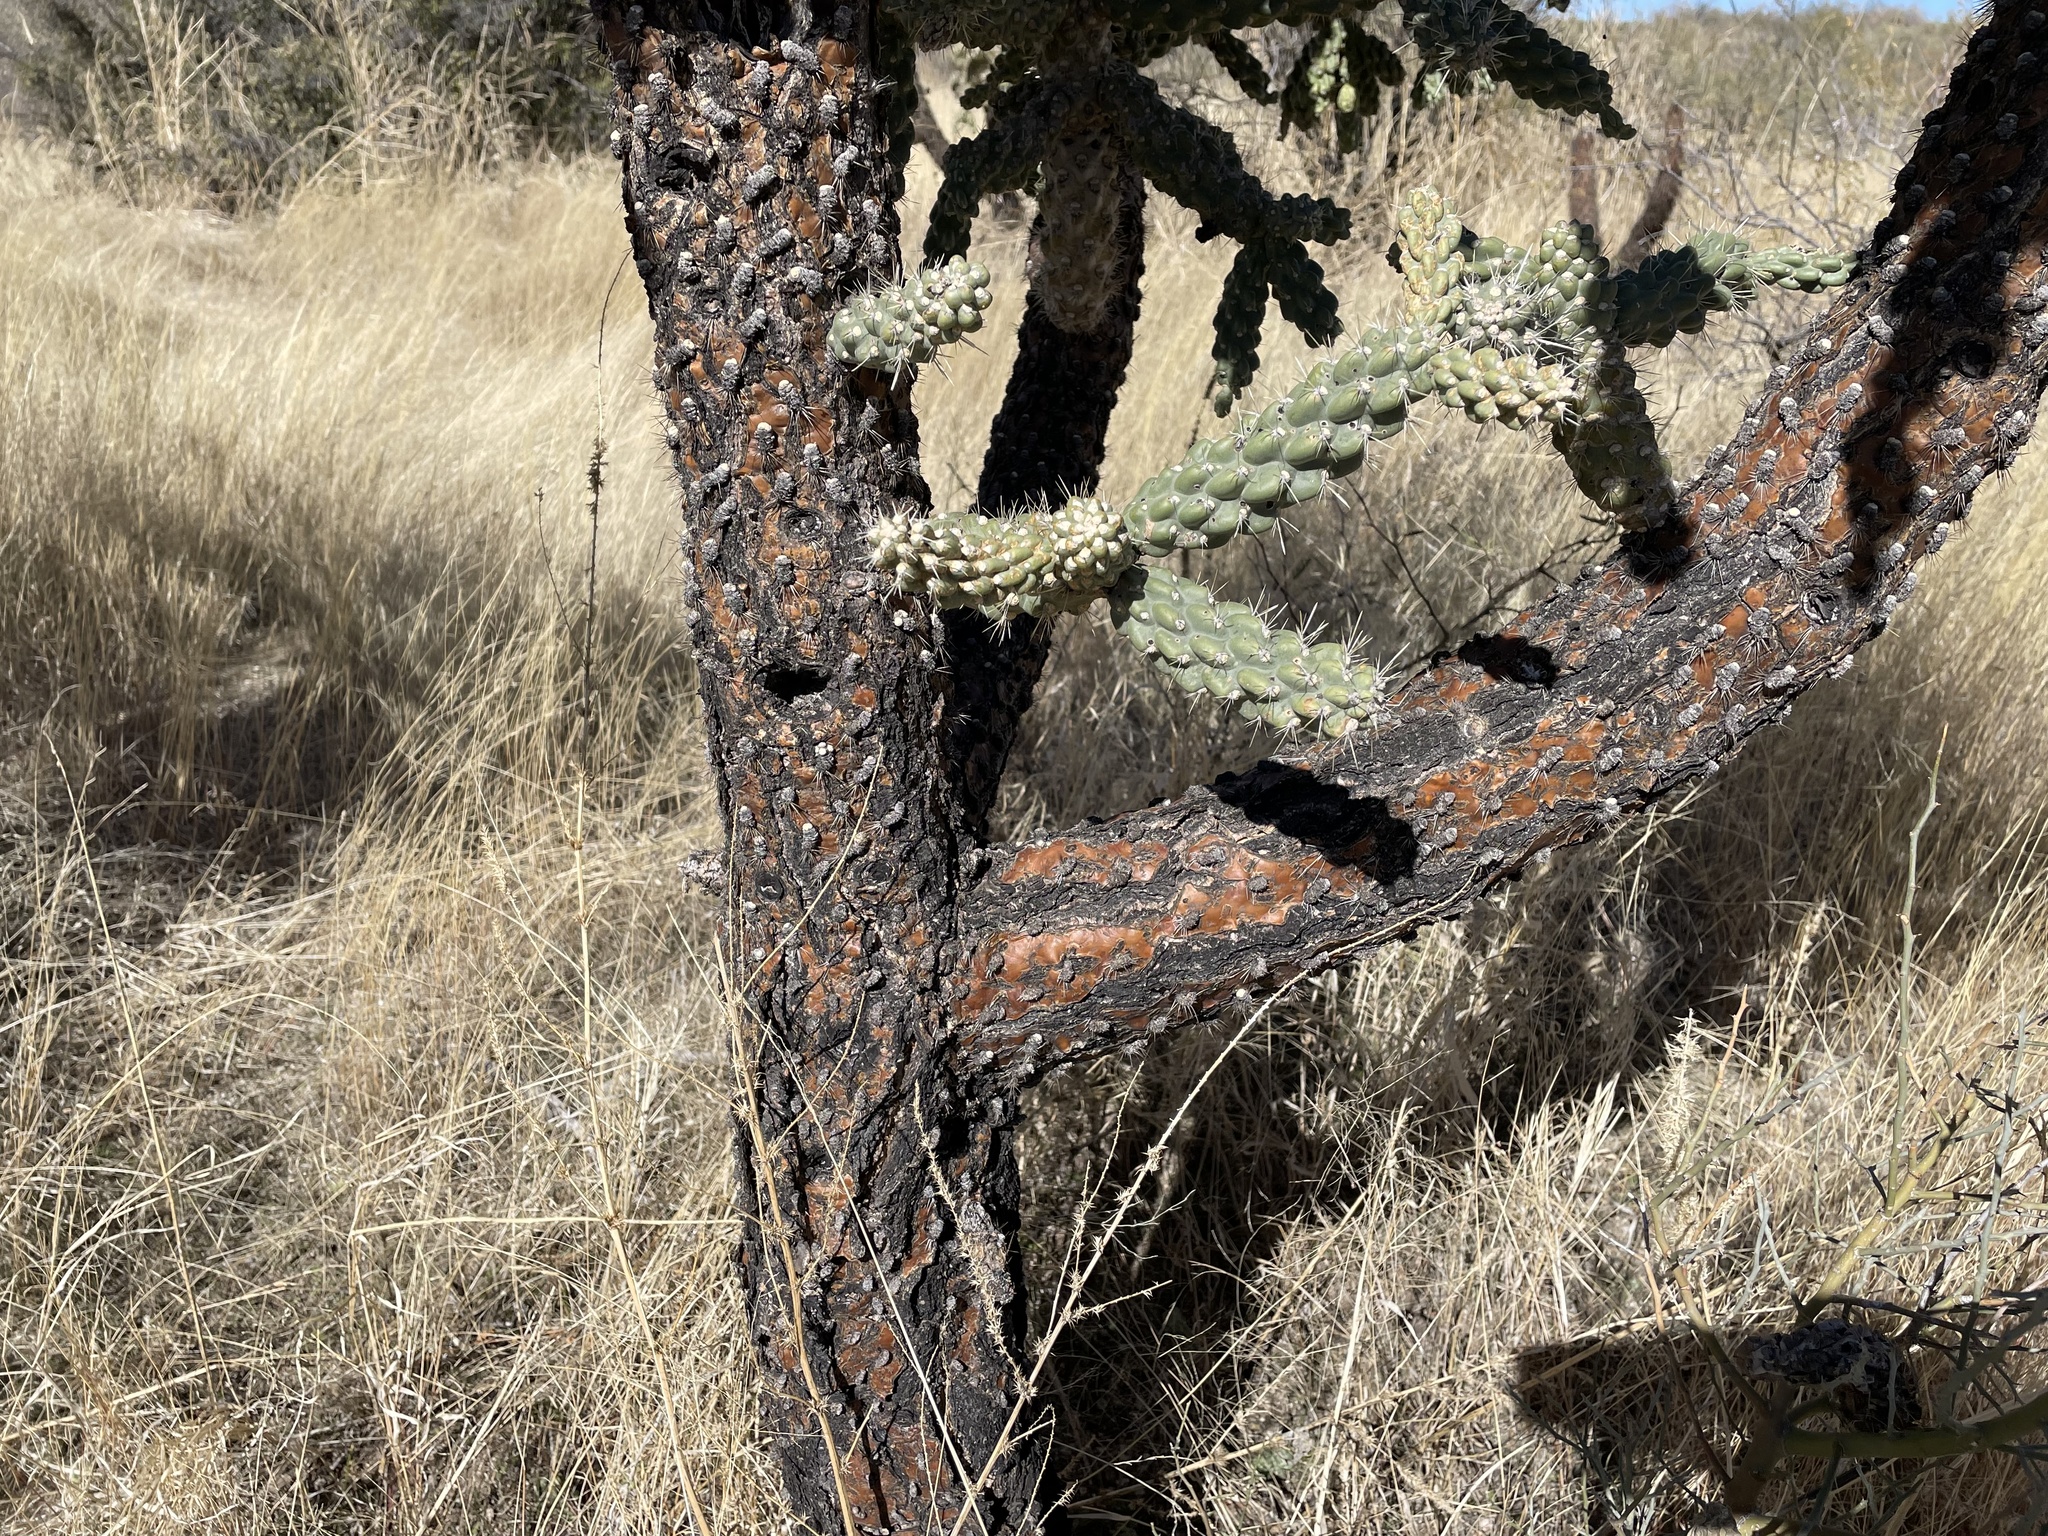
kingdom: Plantae
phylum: Tracheophyta
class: Magnoliopsida
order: Caryophyllales
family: Cactaceae
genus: Cylindropuntia
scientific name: Cylindropuntia fulgida
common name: Jumping cholla
